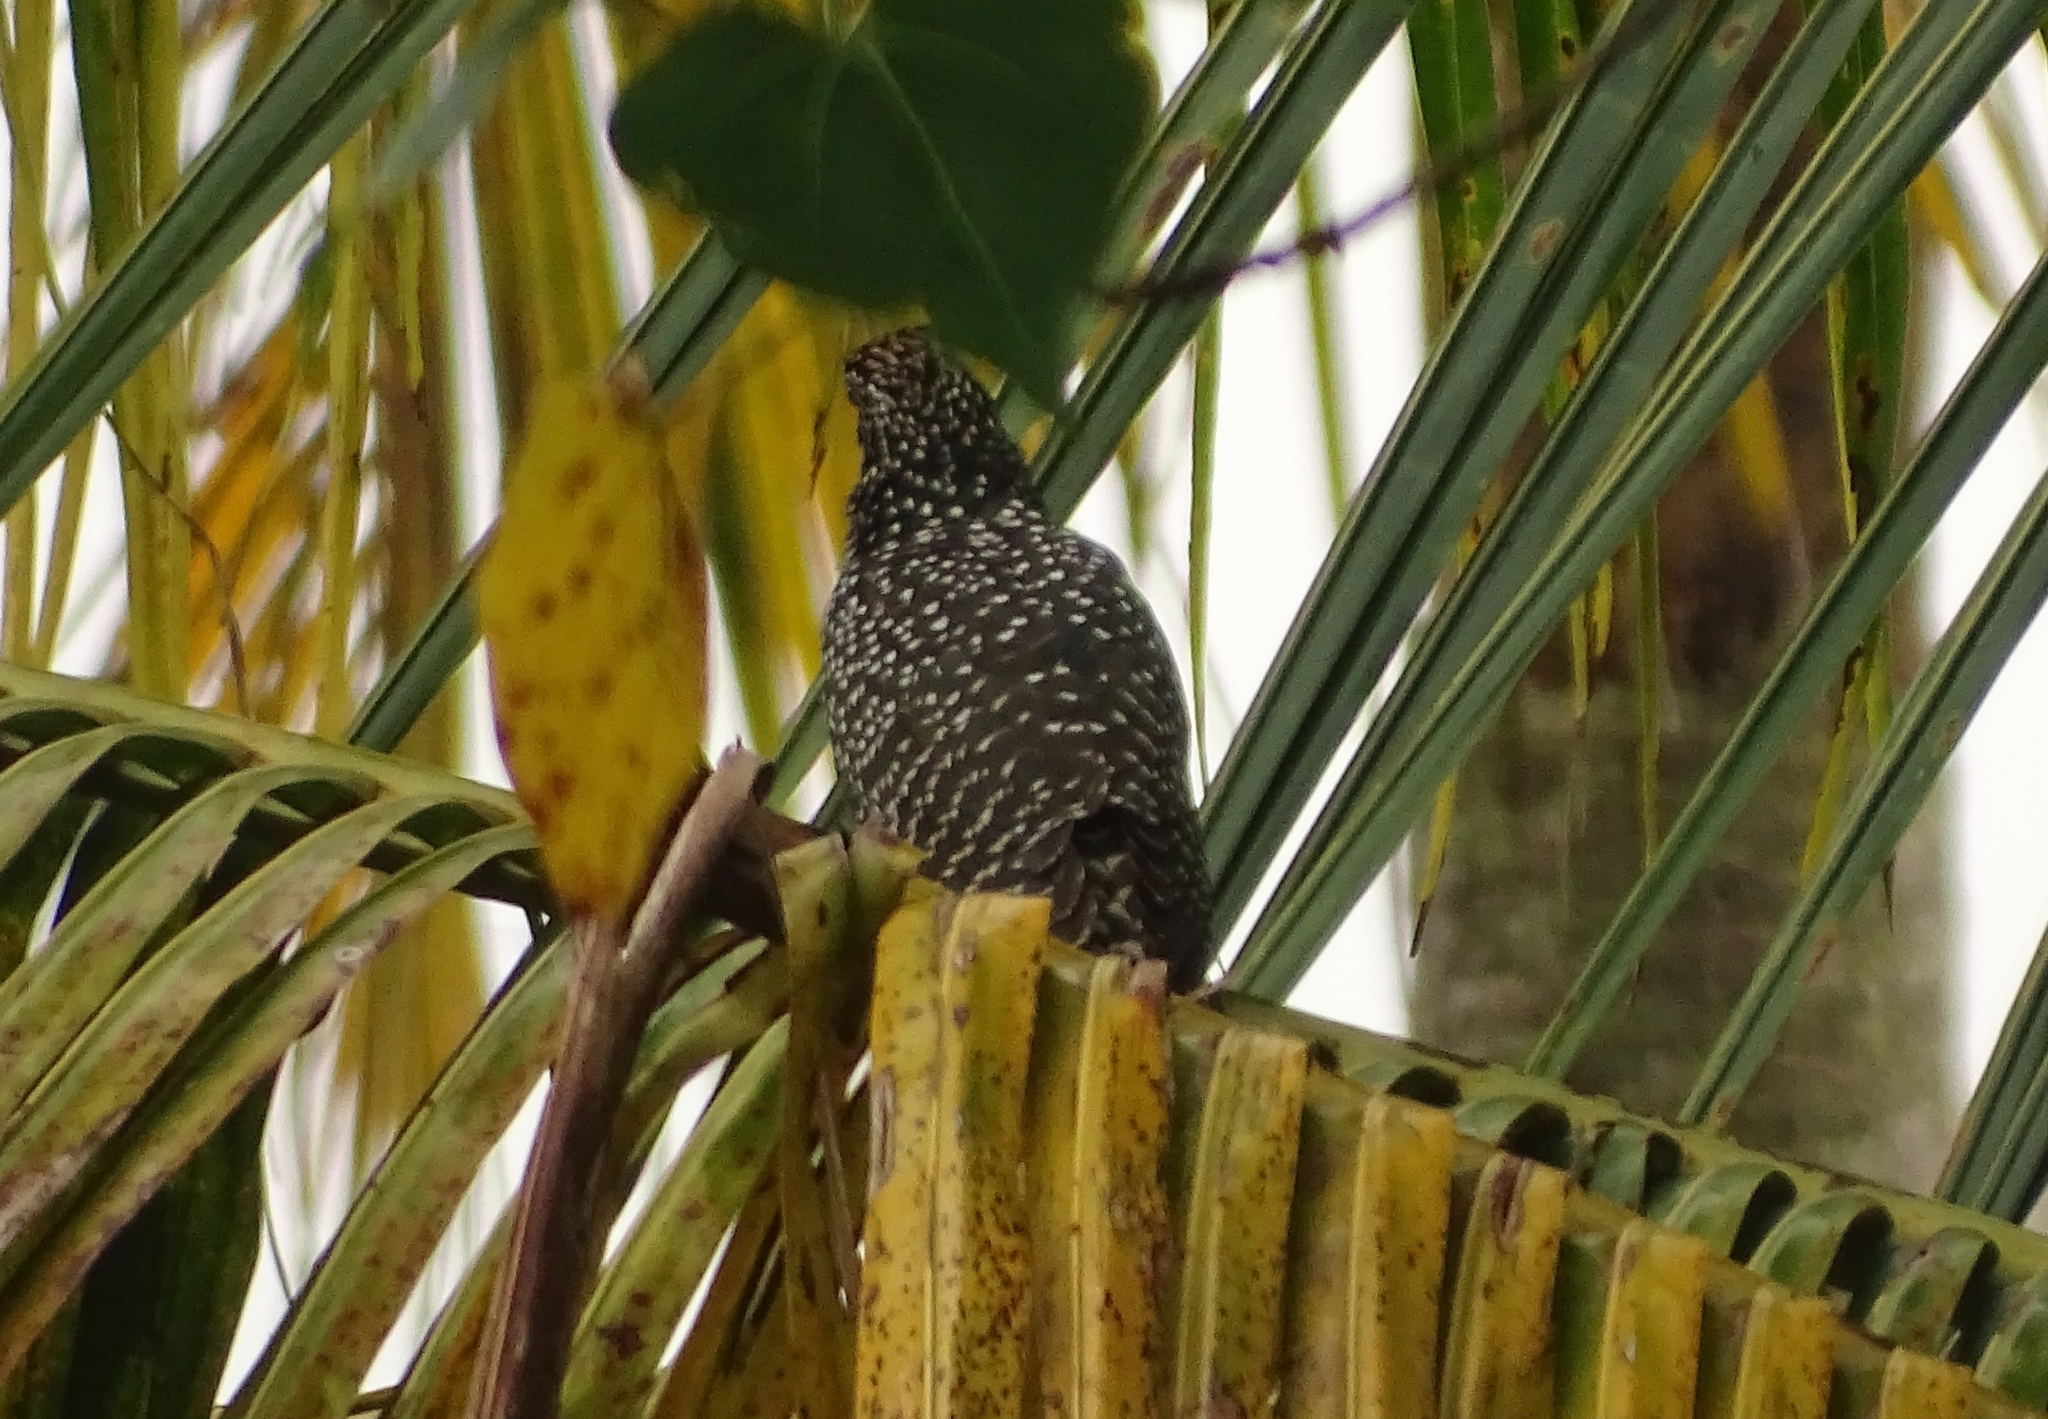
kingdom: Animalia
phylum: Chordata
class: Aves
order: Cuculiformes
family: Cuculidae
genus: Eudynamys
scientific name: Eudynamys scolopaceus
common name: Asian koel
